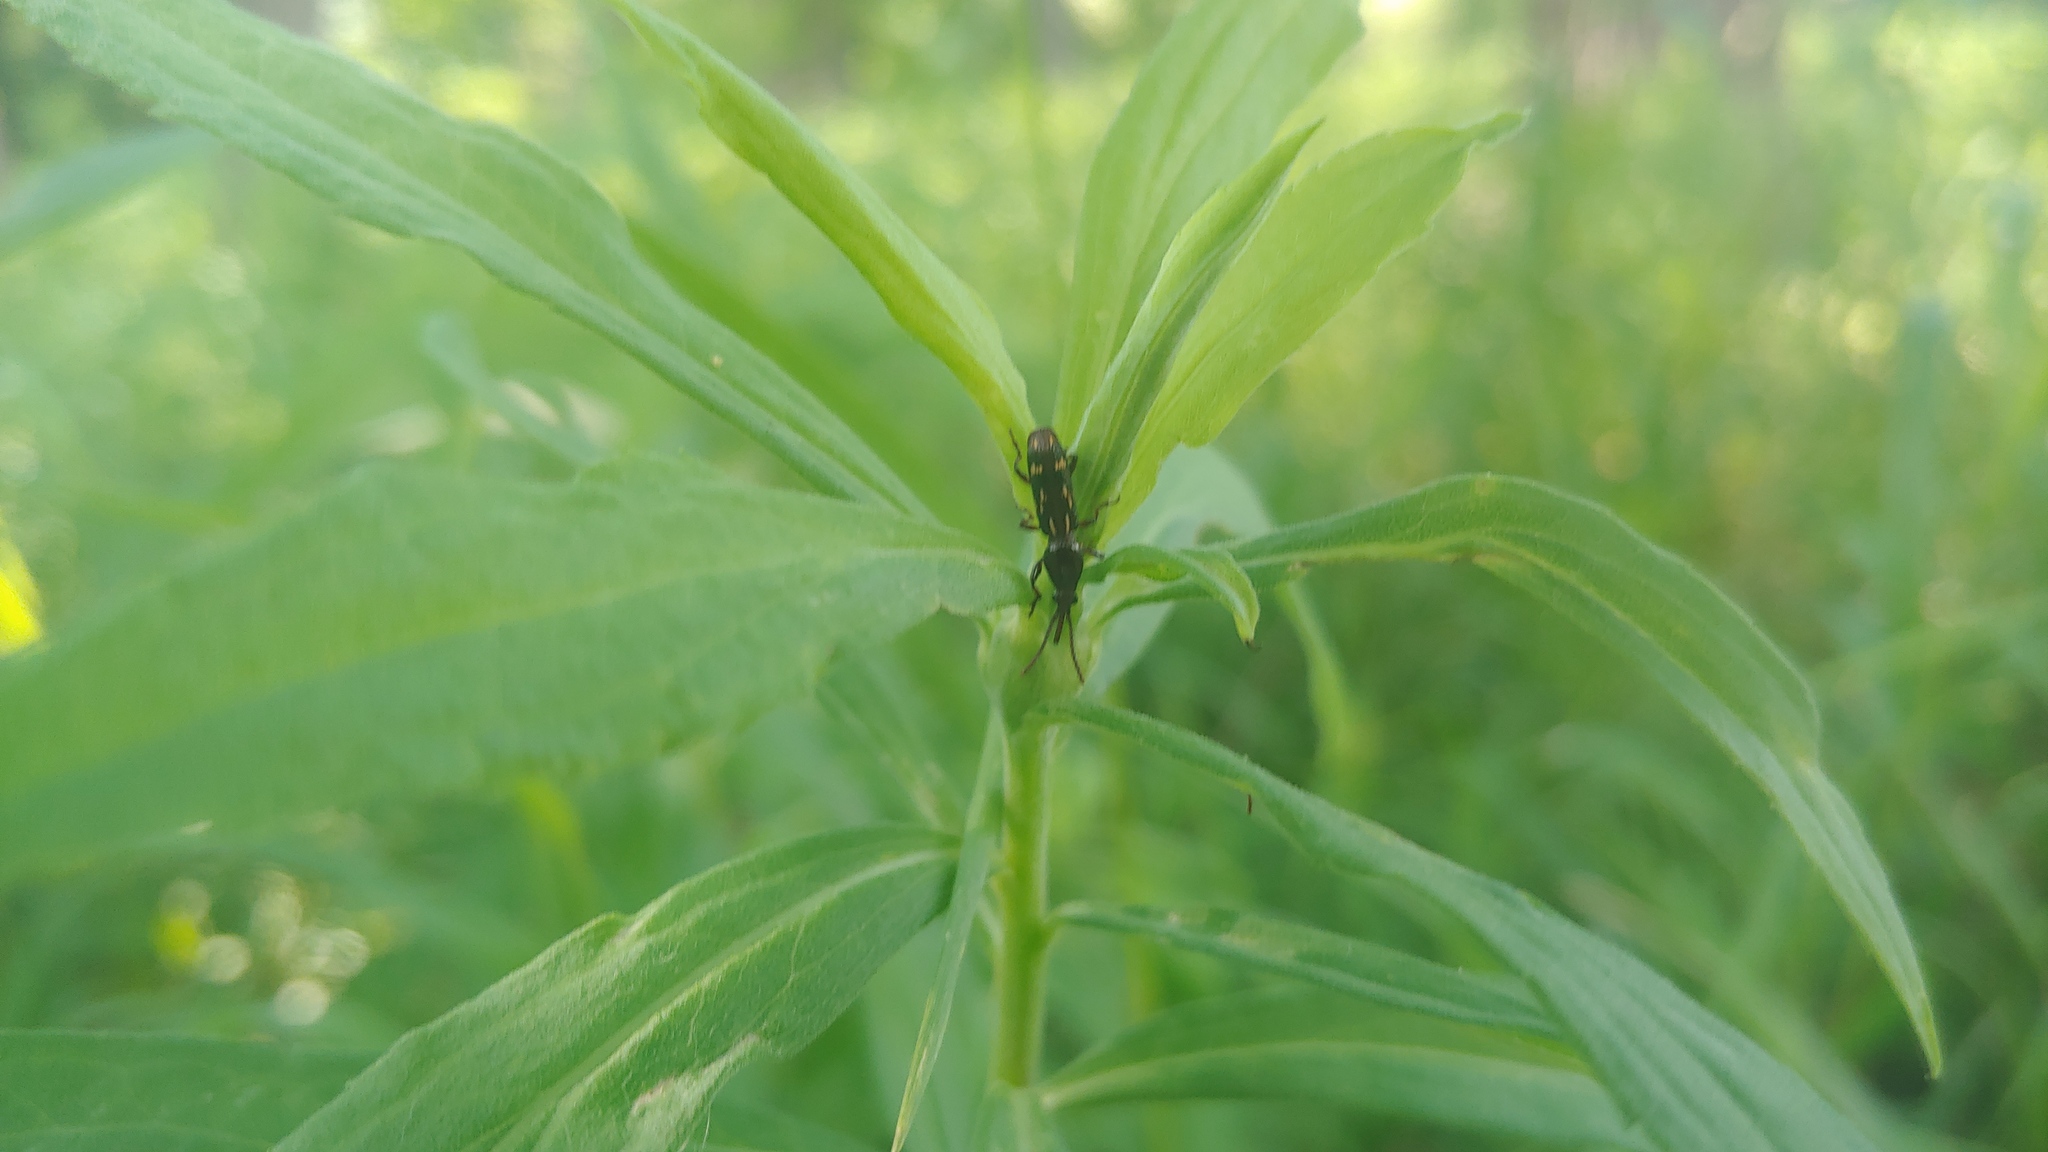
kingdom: Animalia
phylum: Arthropoda
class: Insecta
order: Coleoptera
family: Brentidae
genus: Arrenodes
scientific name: Arrenodes minutus
